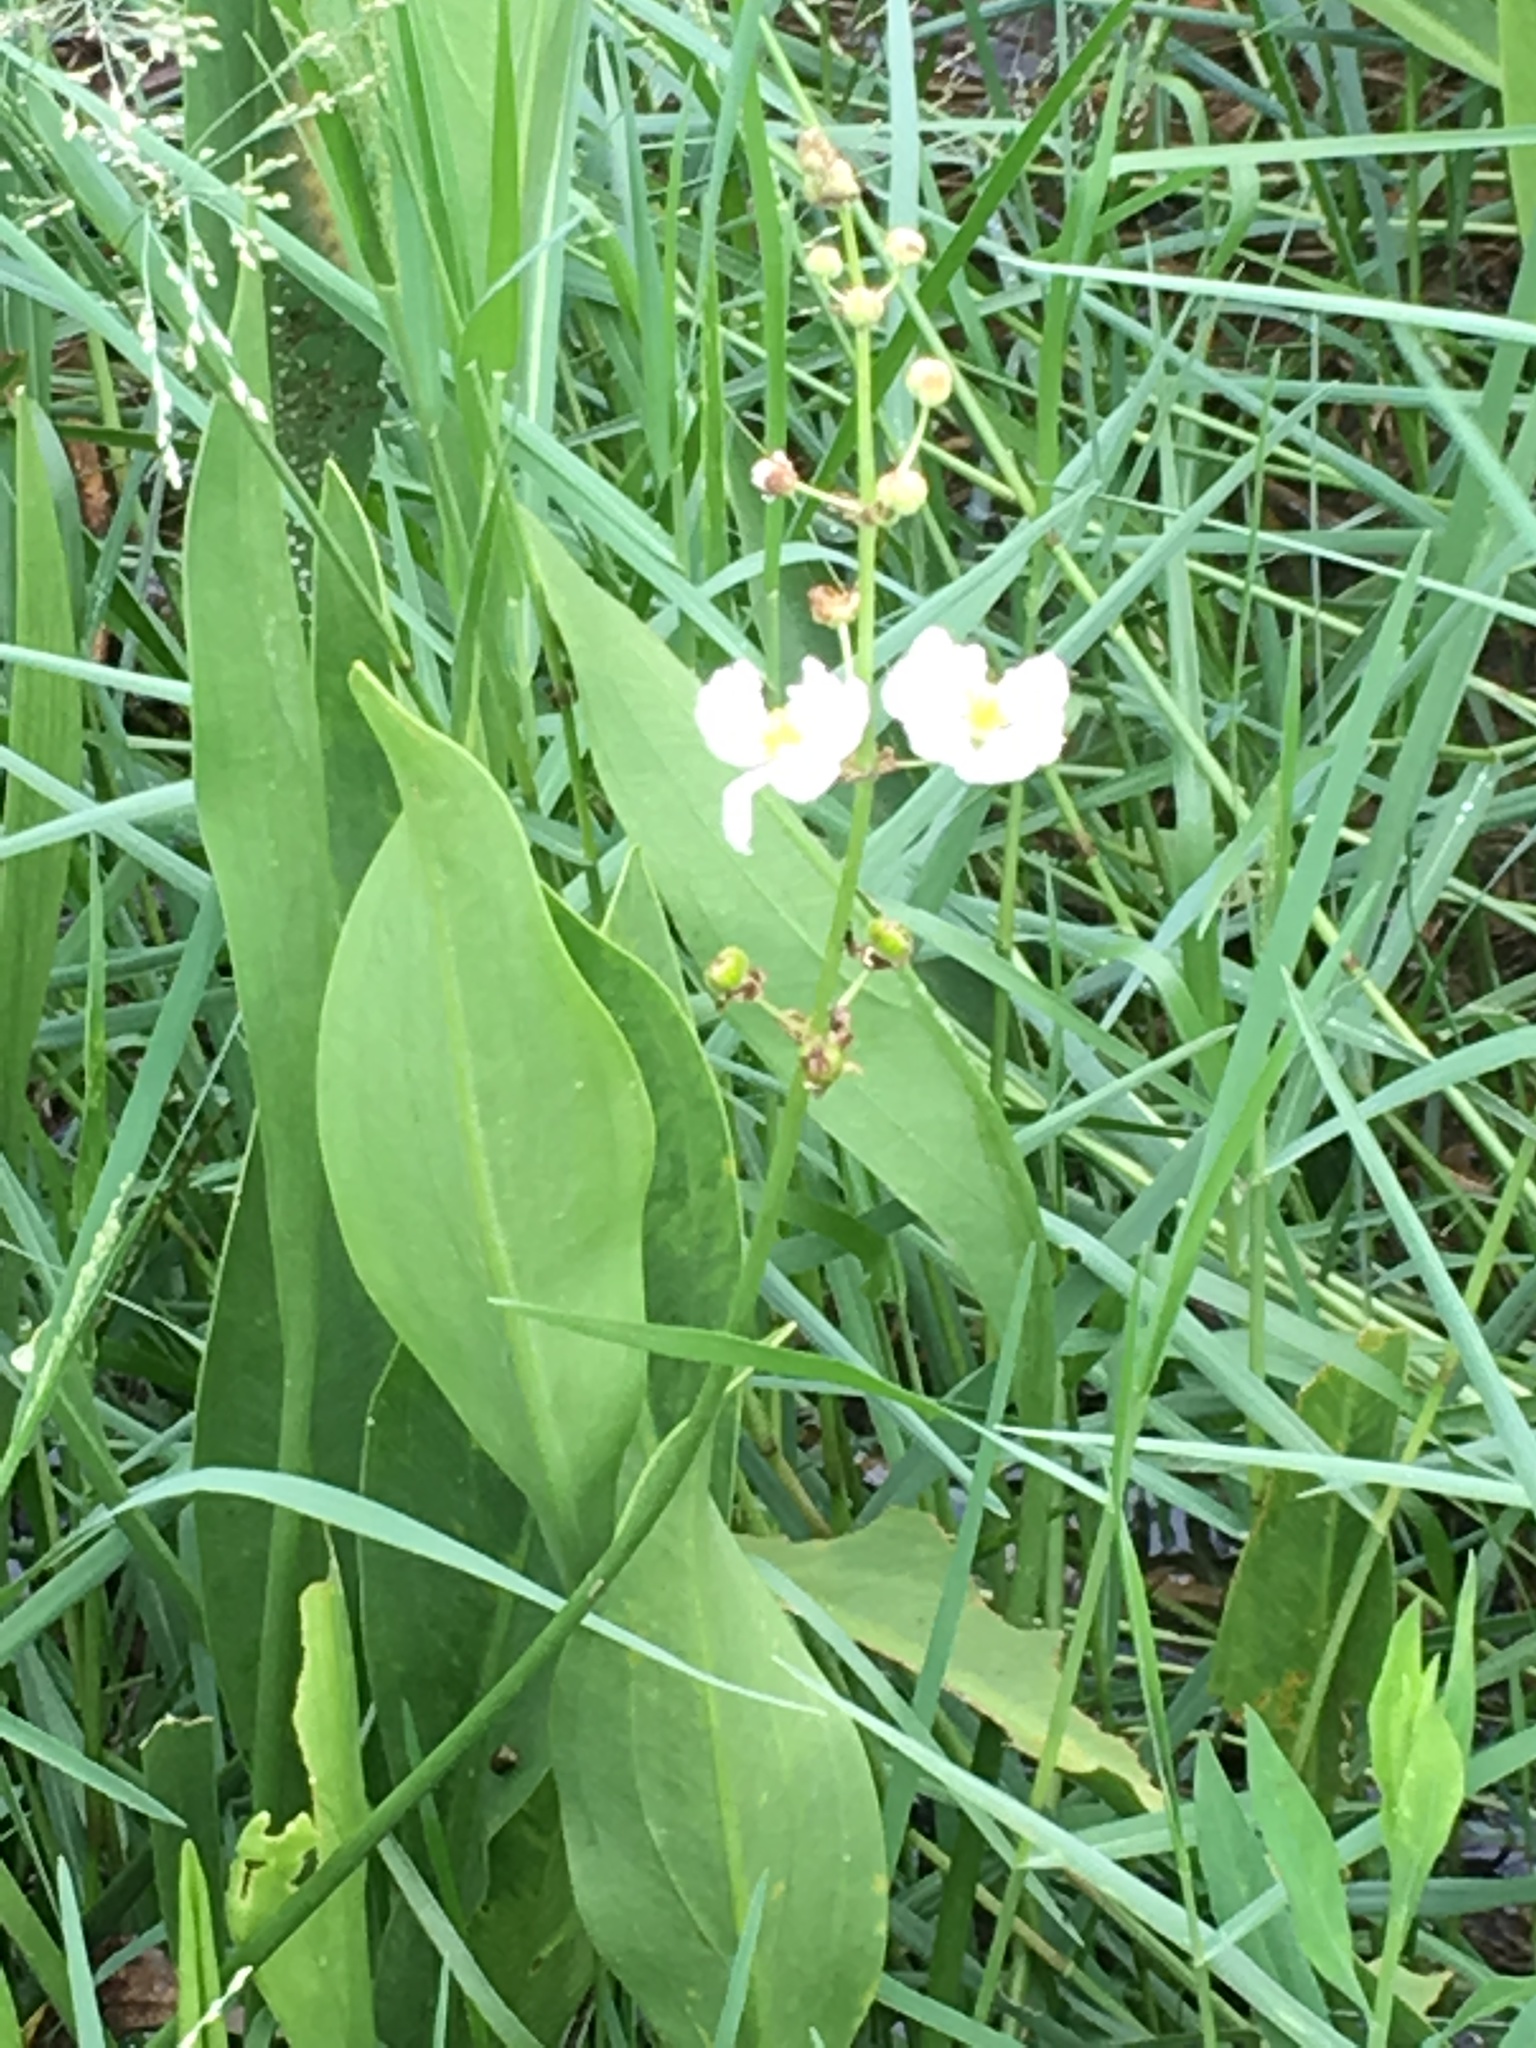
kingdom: Plantae
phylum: Tracheophyta
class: Liliopsida
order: Alismatales
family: Alismataceae
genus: Sagittaria
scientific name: Sagittaria lancifolia
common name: Lance-leaf arrowhead
